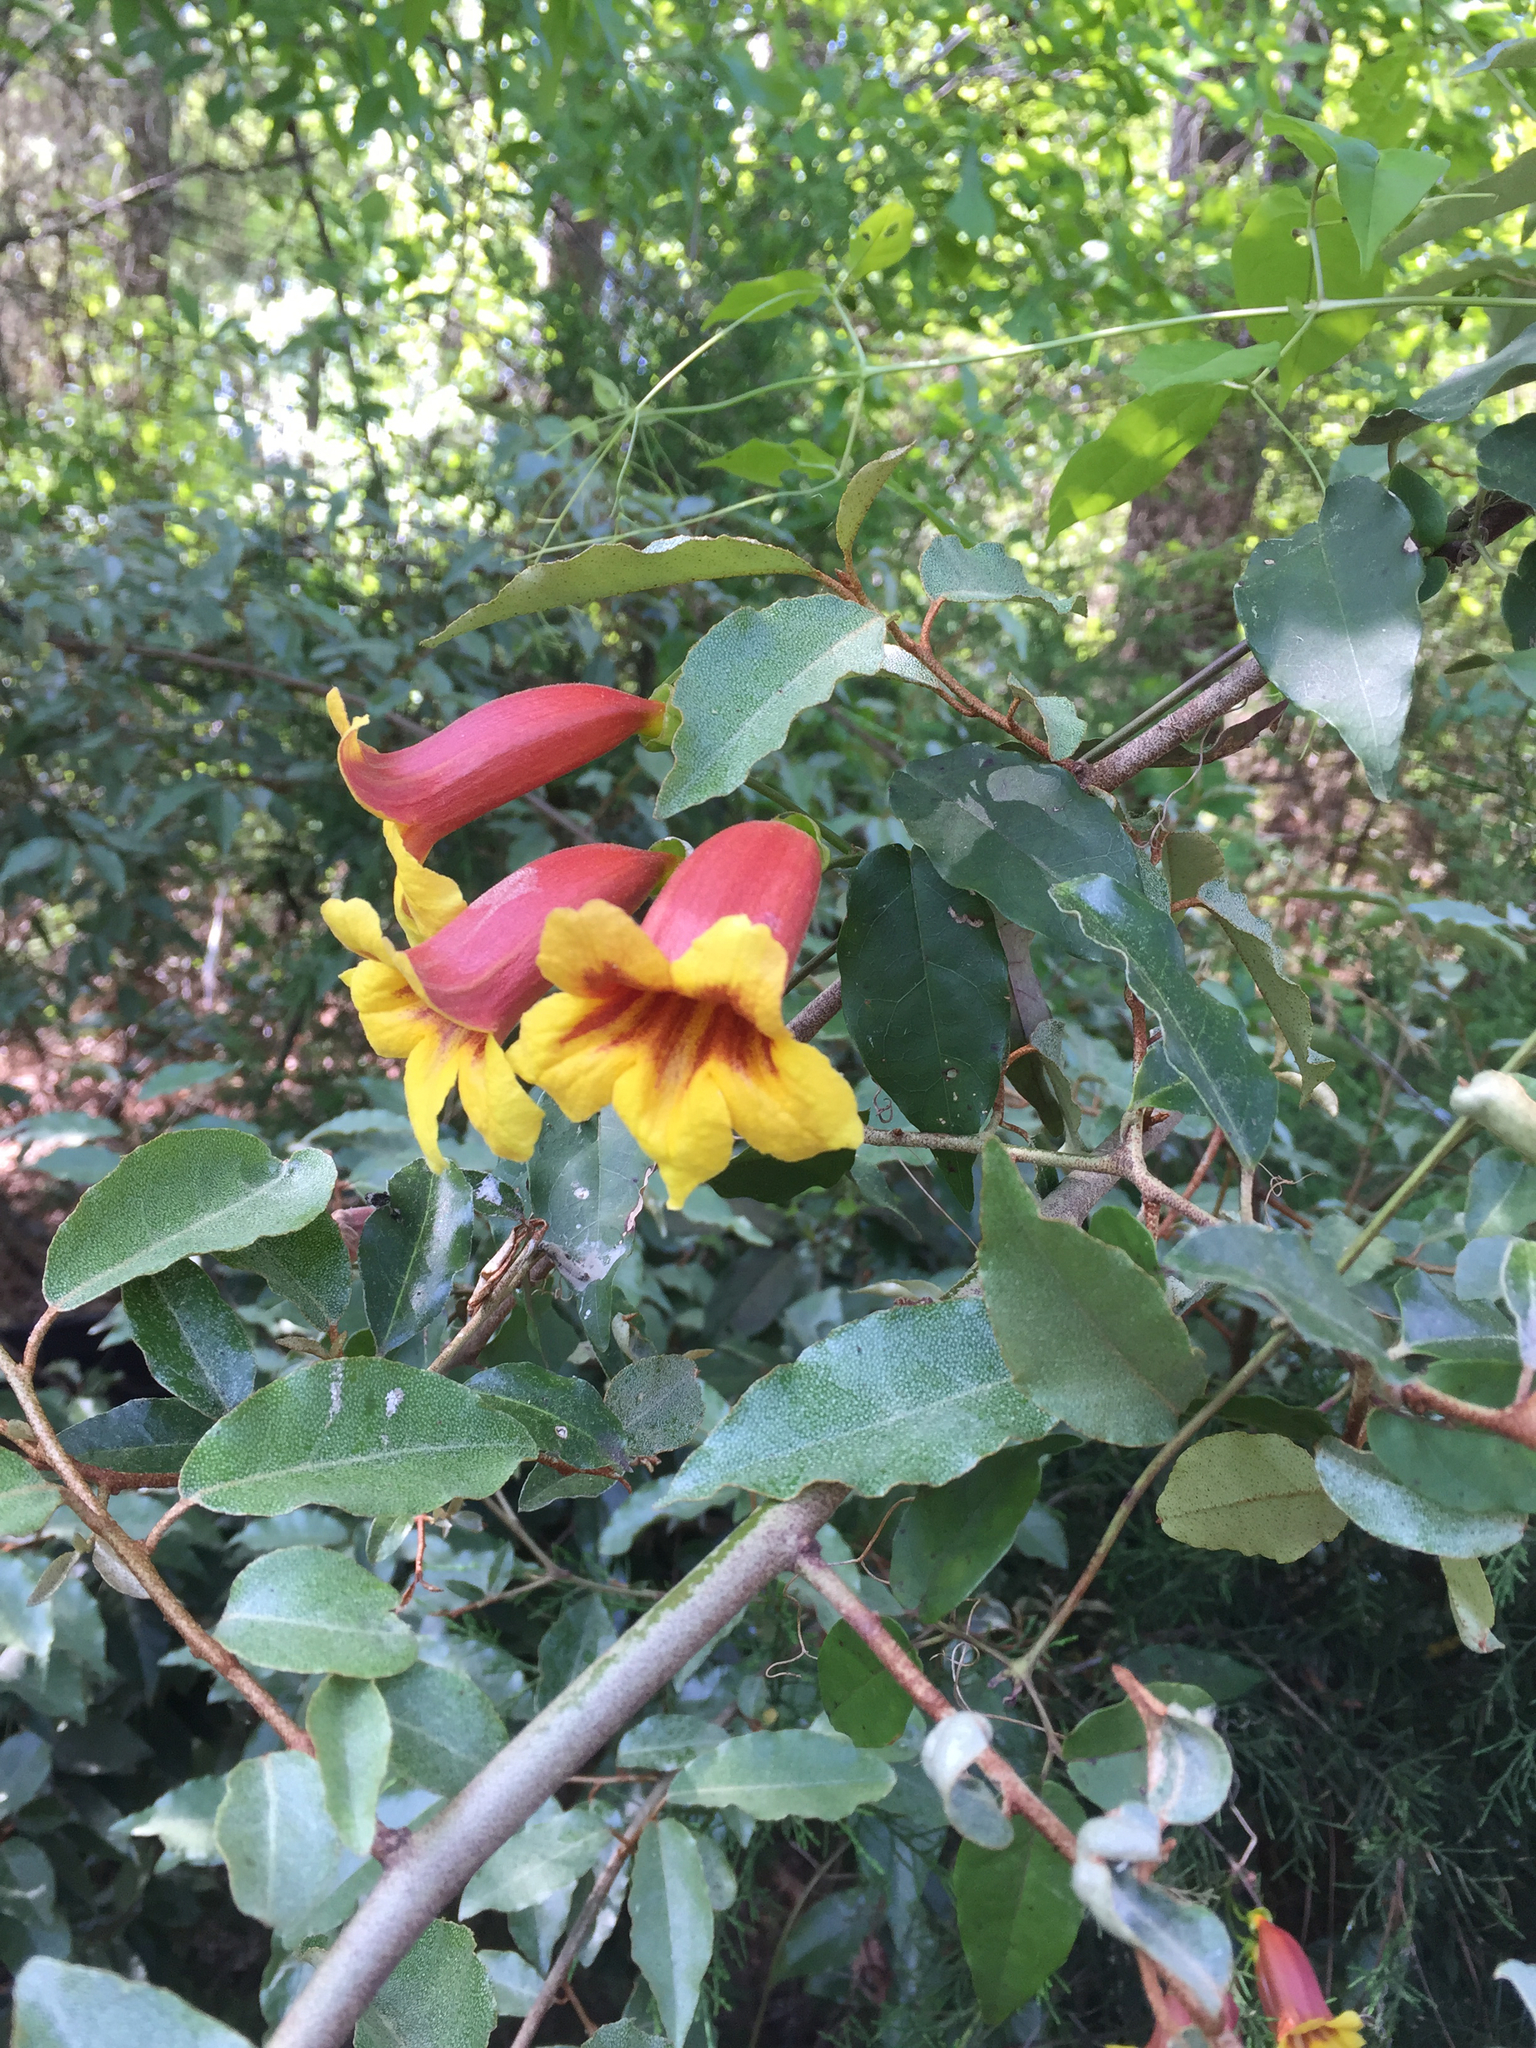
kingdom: Plantae
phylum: Tracheophyta
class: Magnoliopsida
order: Lamiales
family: Bignoniaceae
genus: Bignonia
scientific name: Bignonia capreolata
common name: Crossvine
